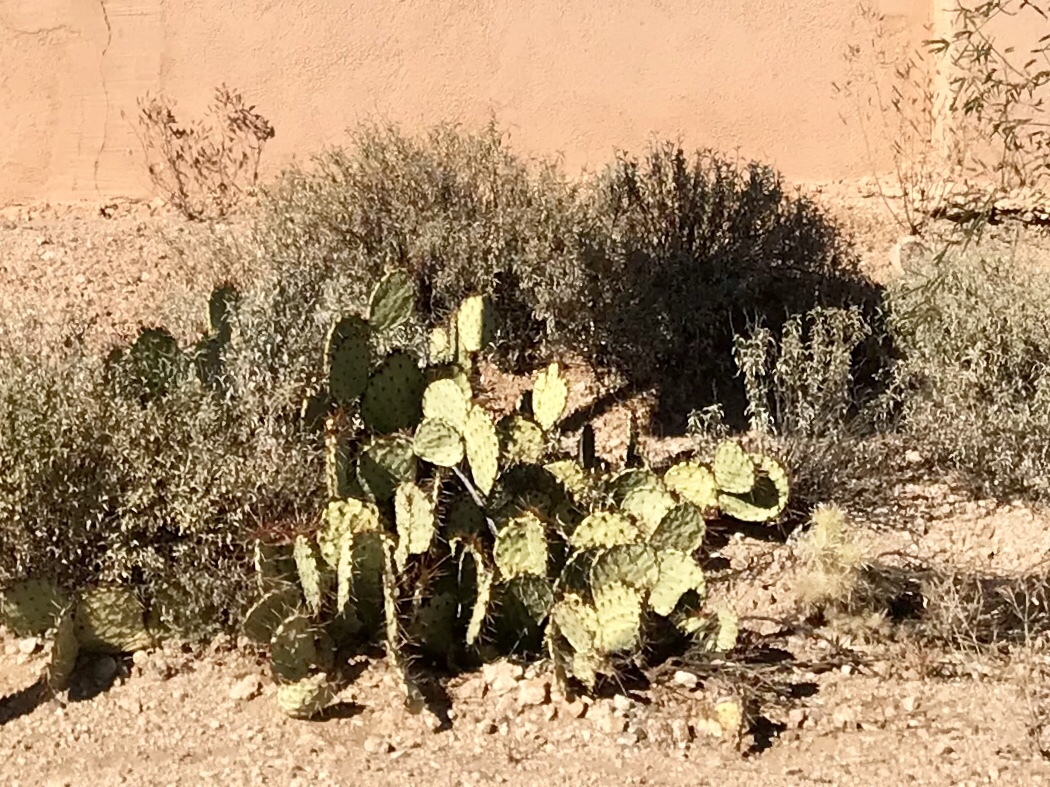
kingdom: Plantae
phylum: Tracheophyta
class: Magnoliopsida
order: Caryophyllales
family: Cactaceae
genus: Opuntia
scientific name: Opuntia engelmannii
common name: Cactus-apple
